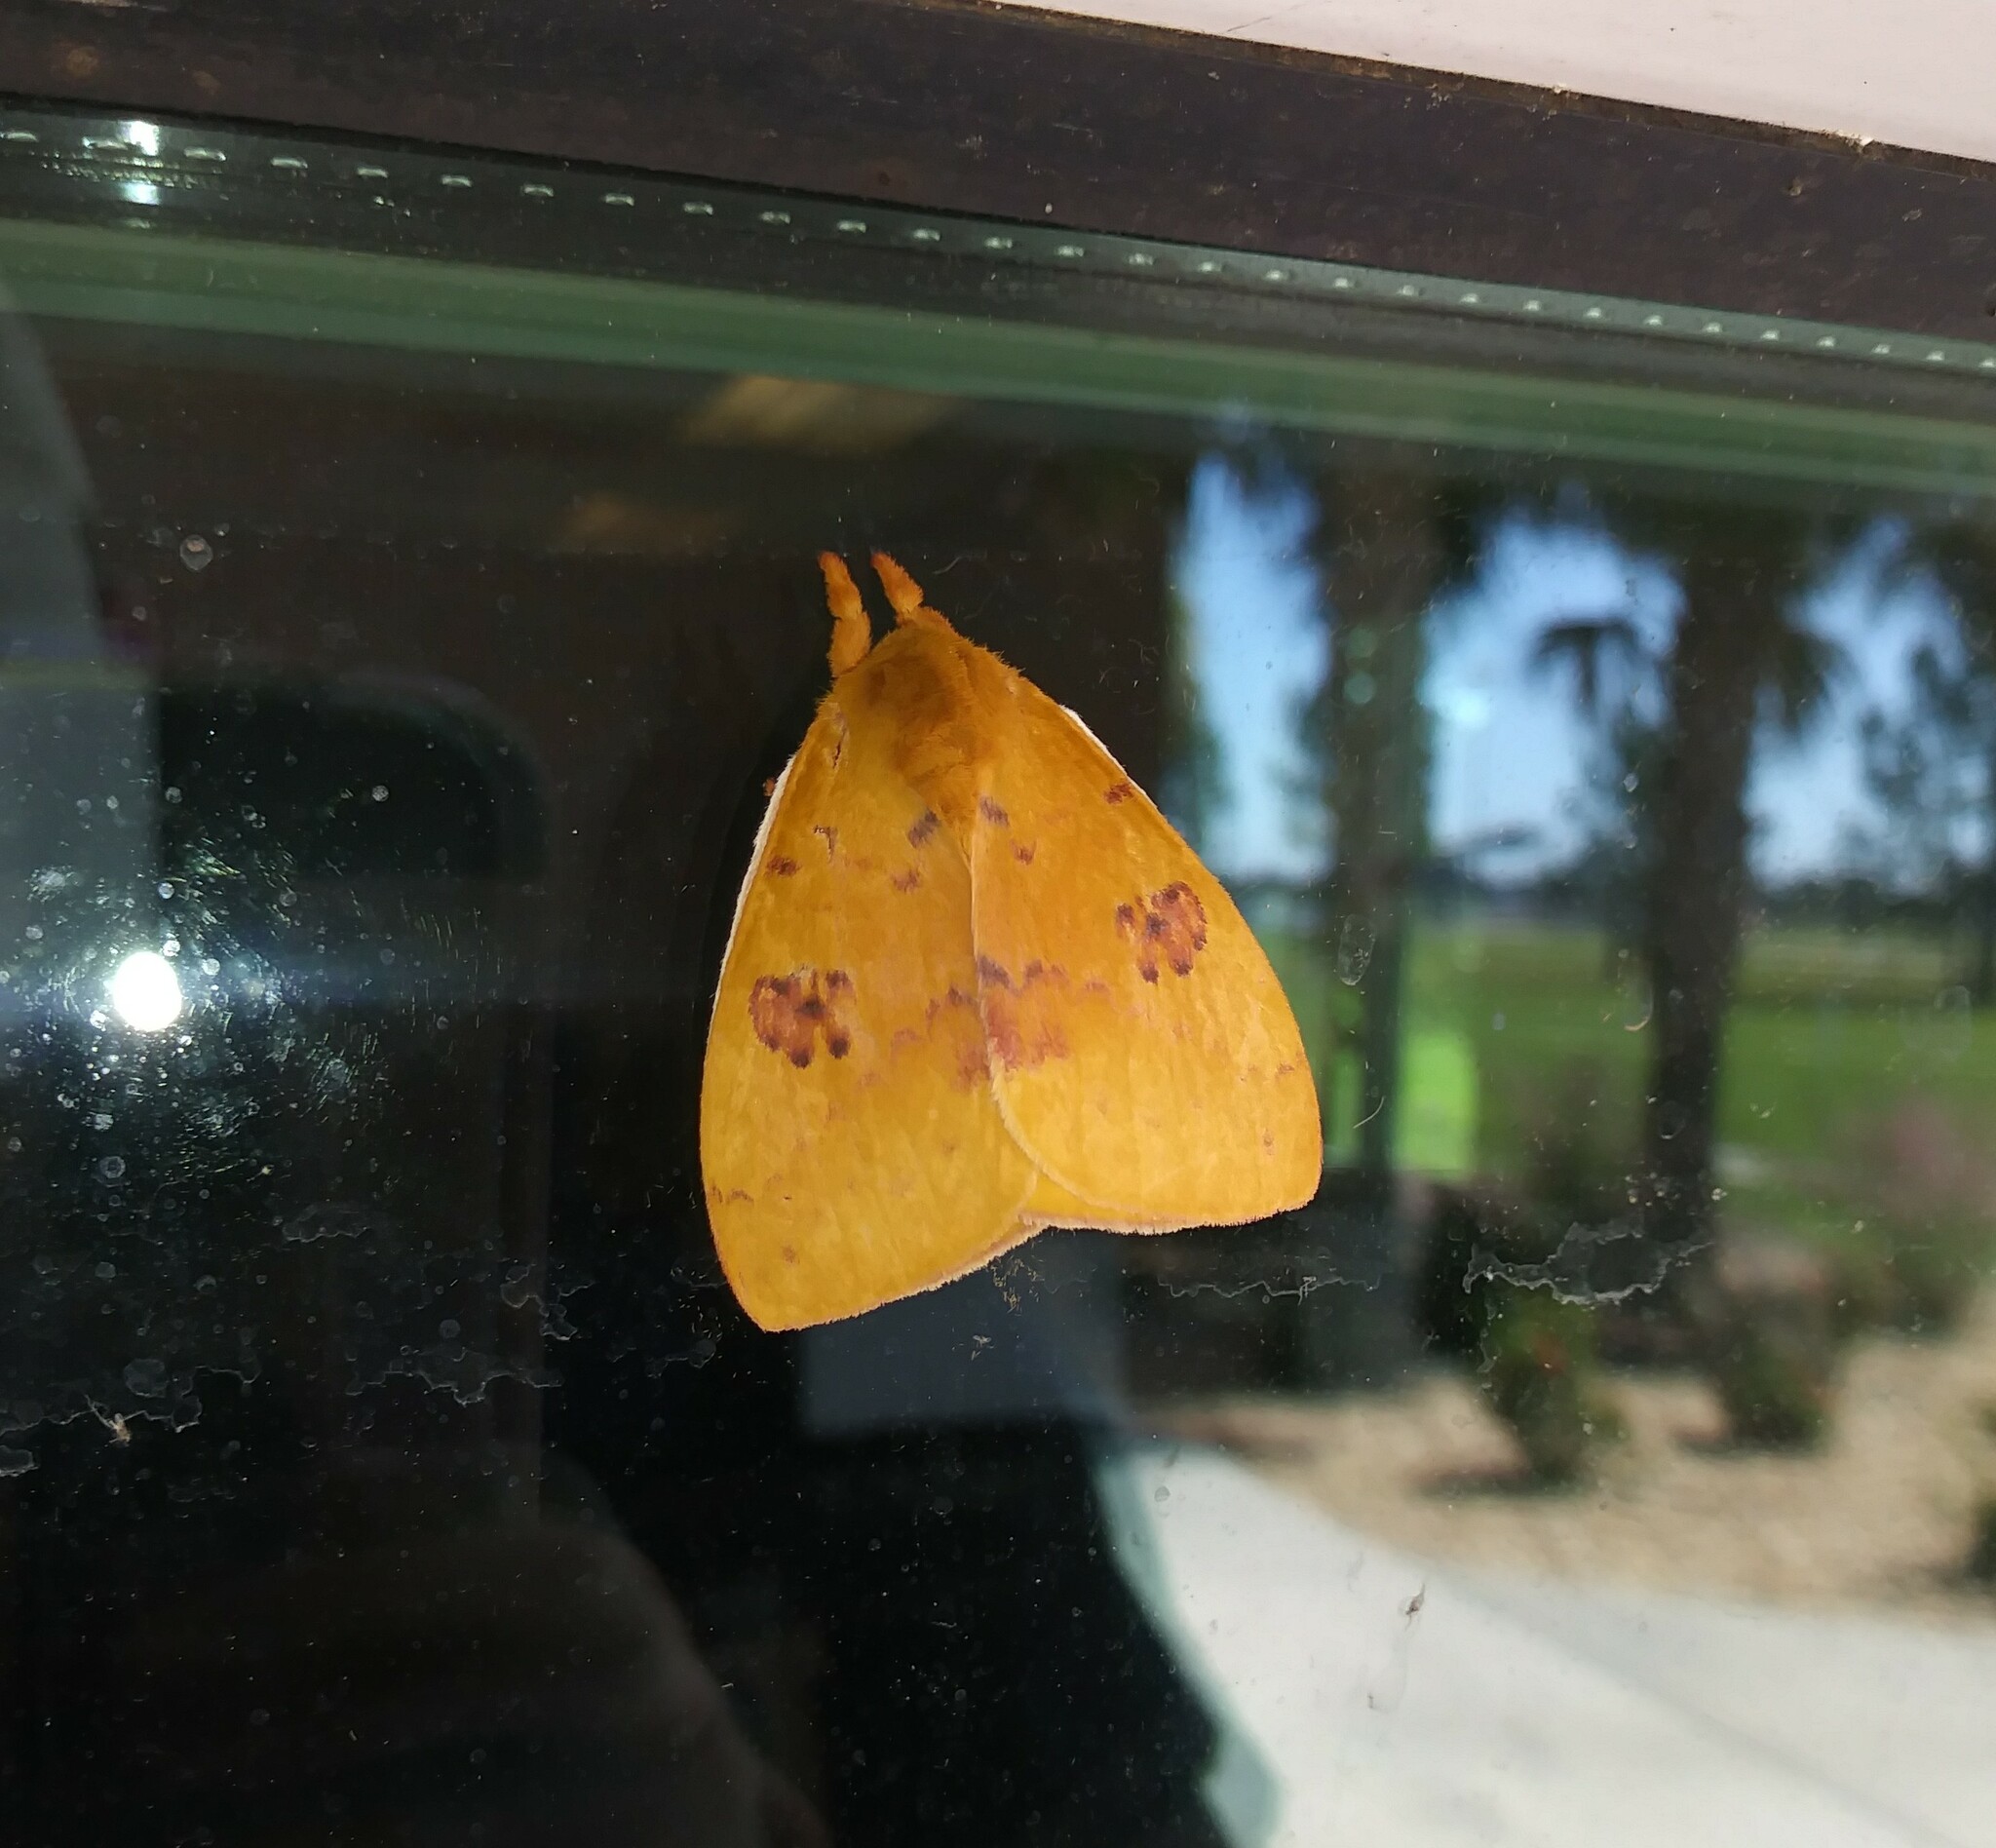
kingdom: Animalia
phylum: Arthropoda
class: Insecta
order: Lepidoptera
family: Saturniidae
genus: Automeris
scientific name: Automeris io
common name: Io moth
